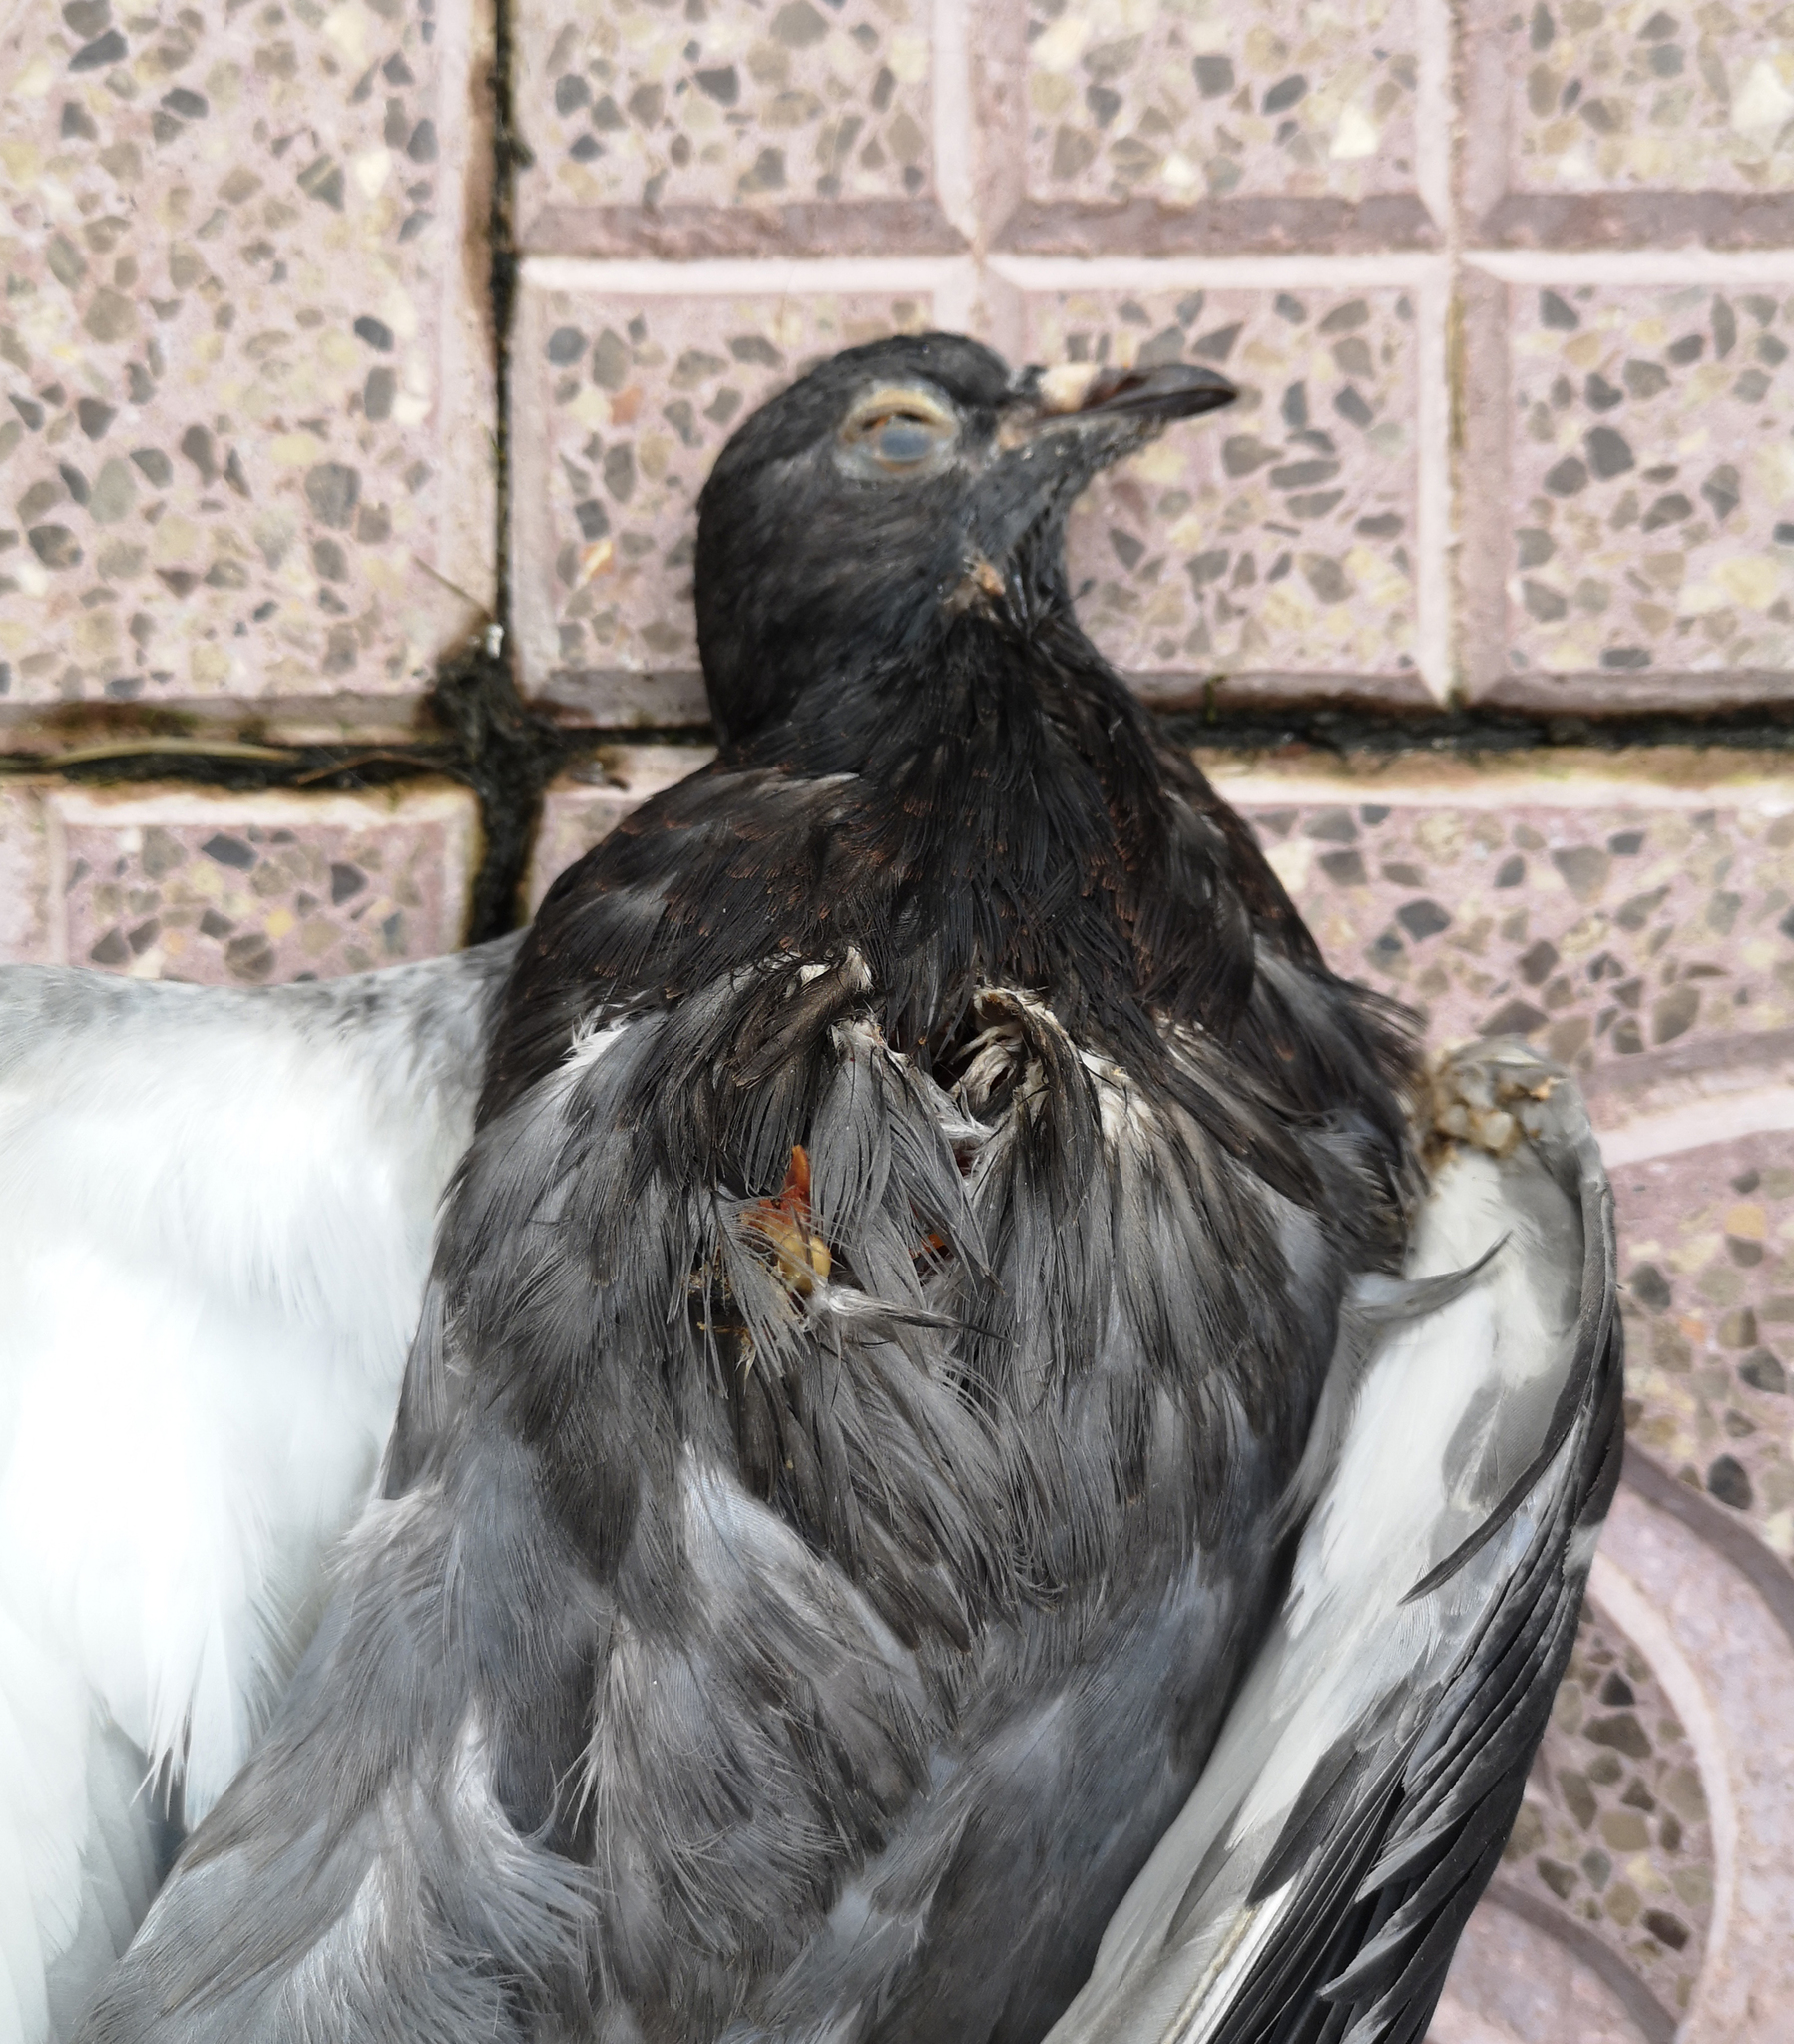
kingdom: Animalia
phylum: Chordata
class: Aves
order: Columbiformes
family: Columbidae
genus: Columba
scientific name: Columba livia
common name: Rock pigeon
